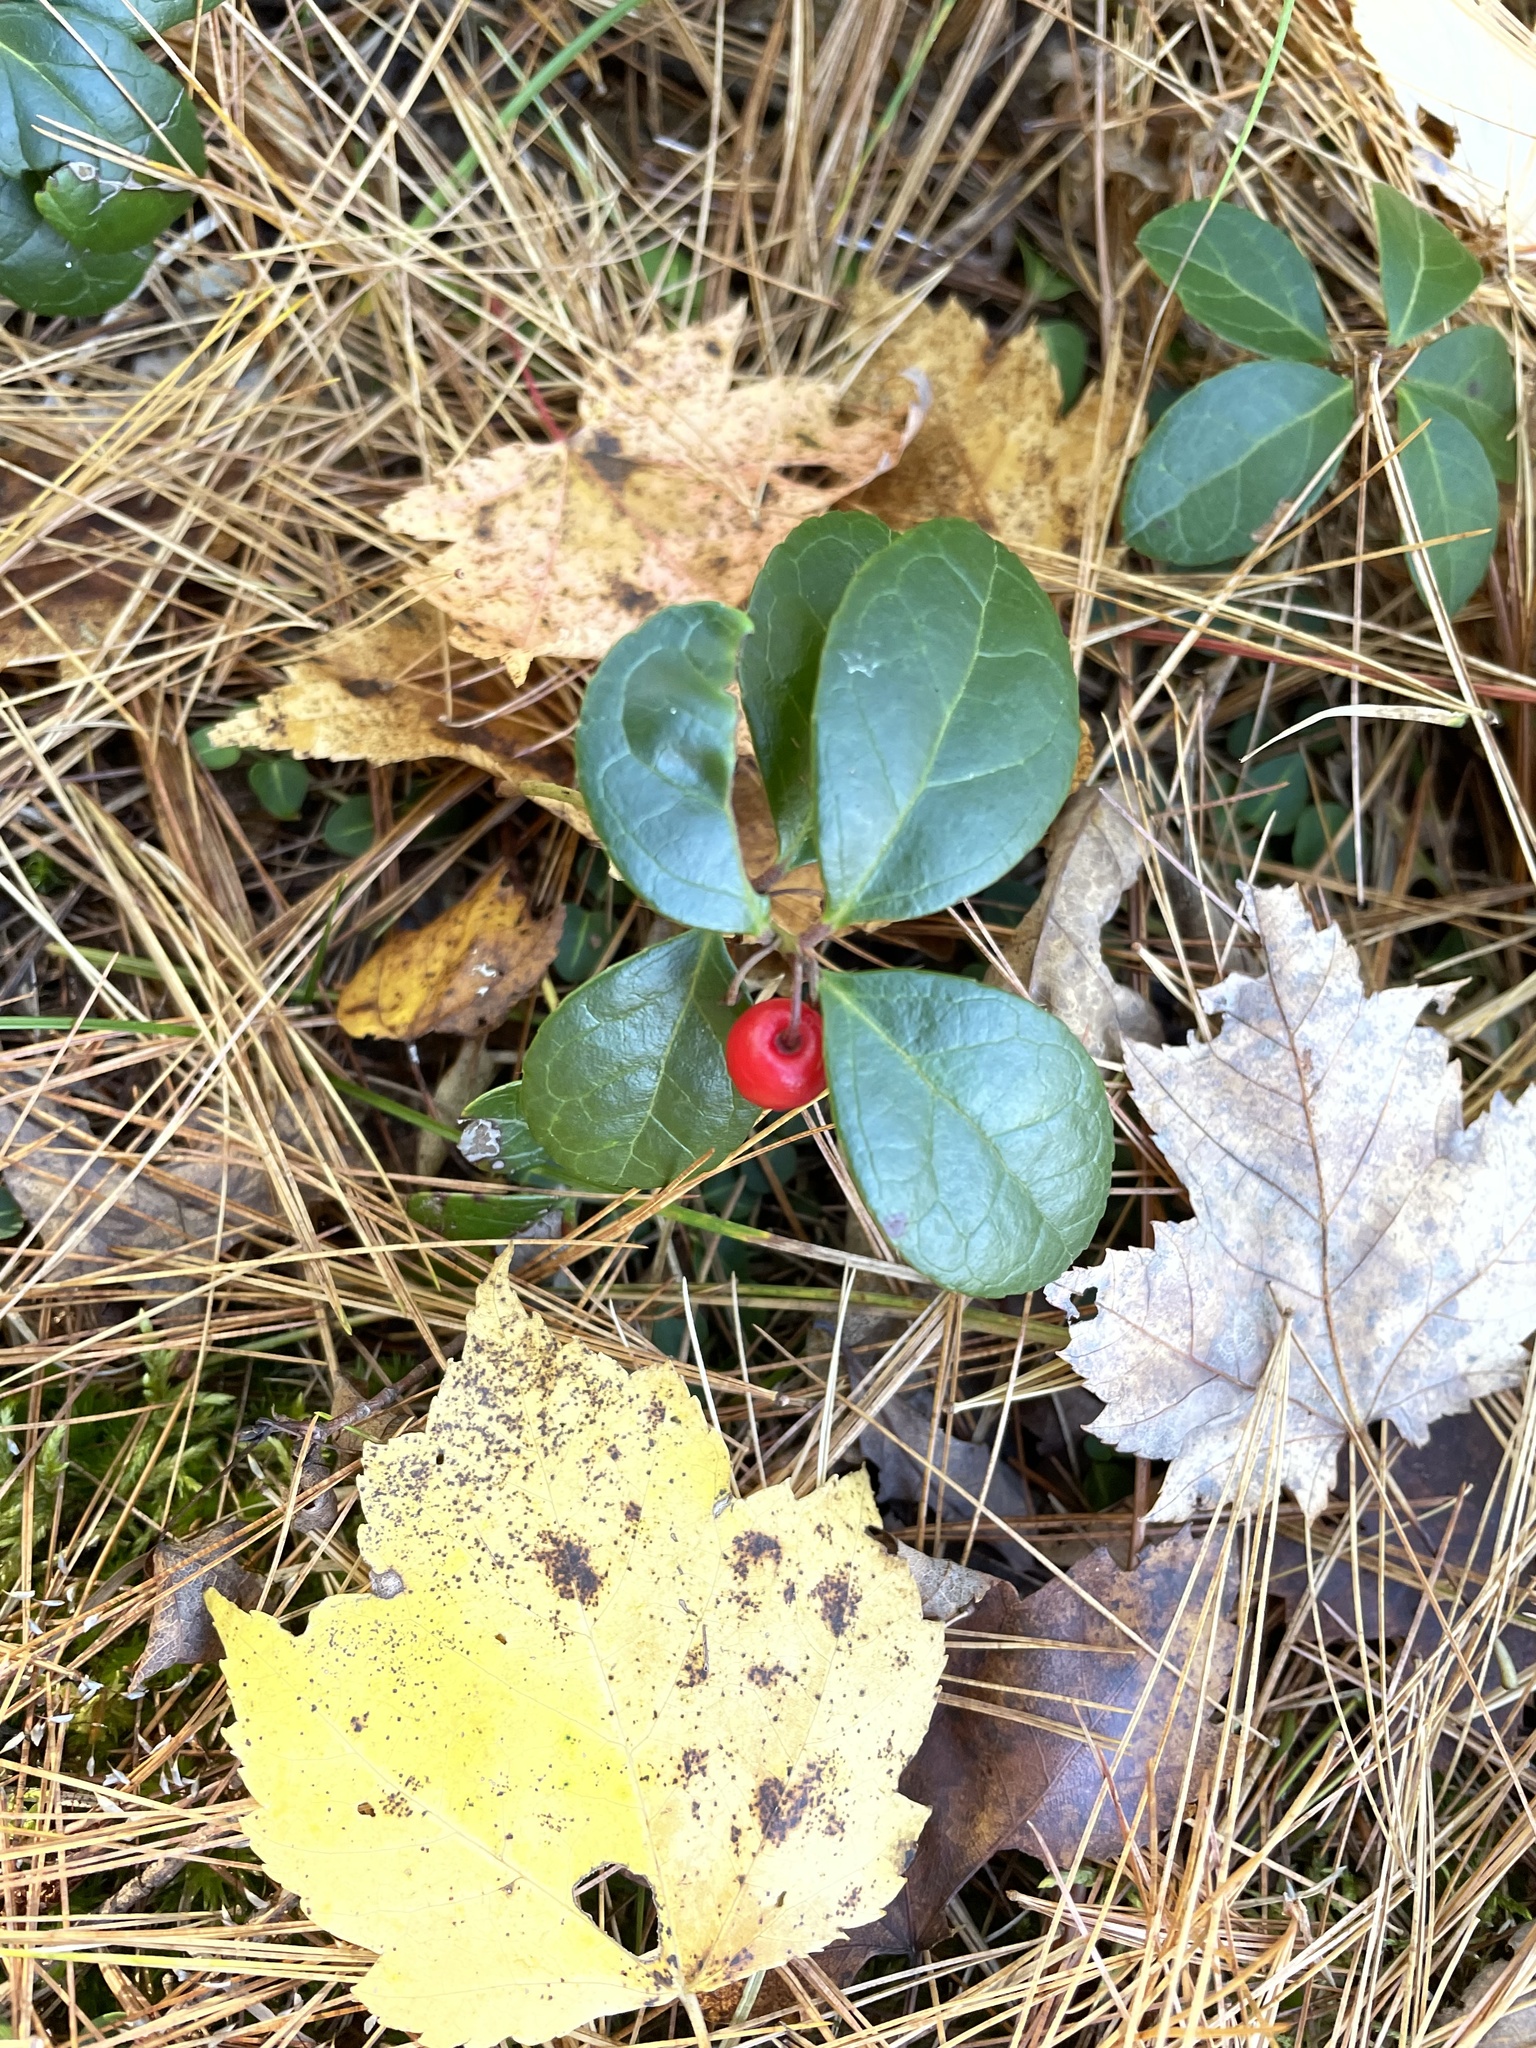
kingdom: Plantae
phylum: Tracheophyta
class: Magnoliopsida
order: Ericales
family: Ericaceae
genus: Gaultheria
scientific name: Gaultheria procumbens
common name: Checkerberry
